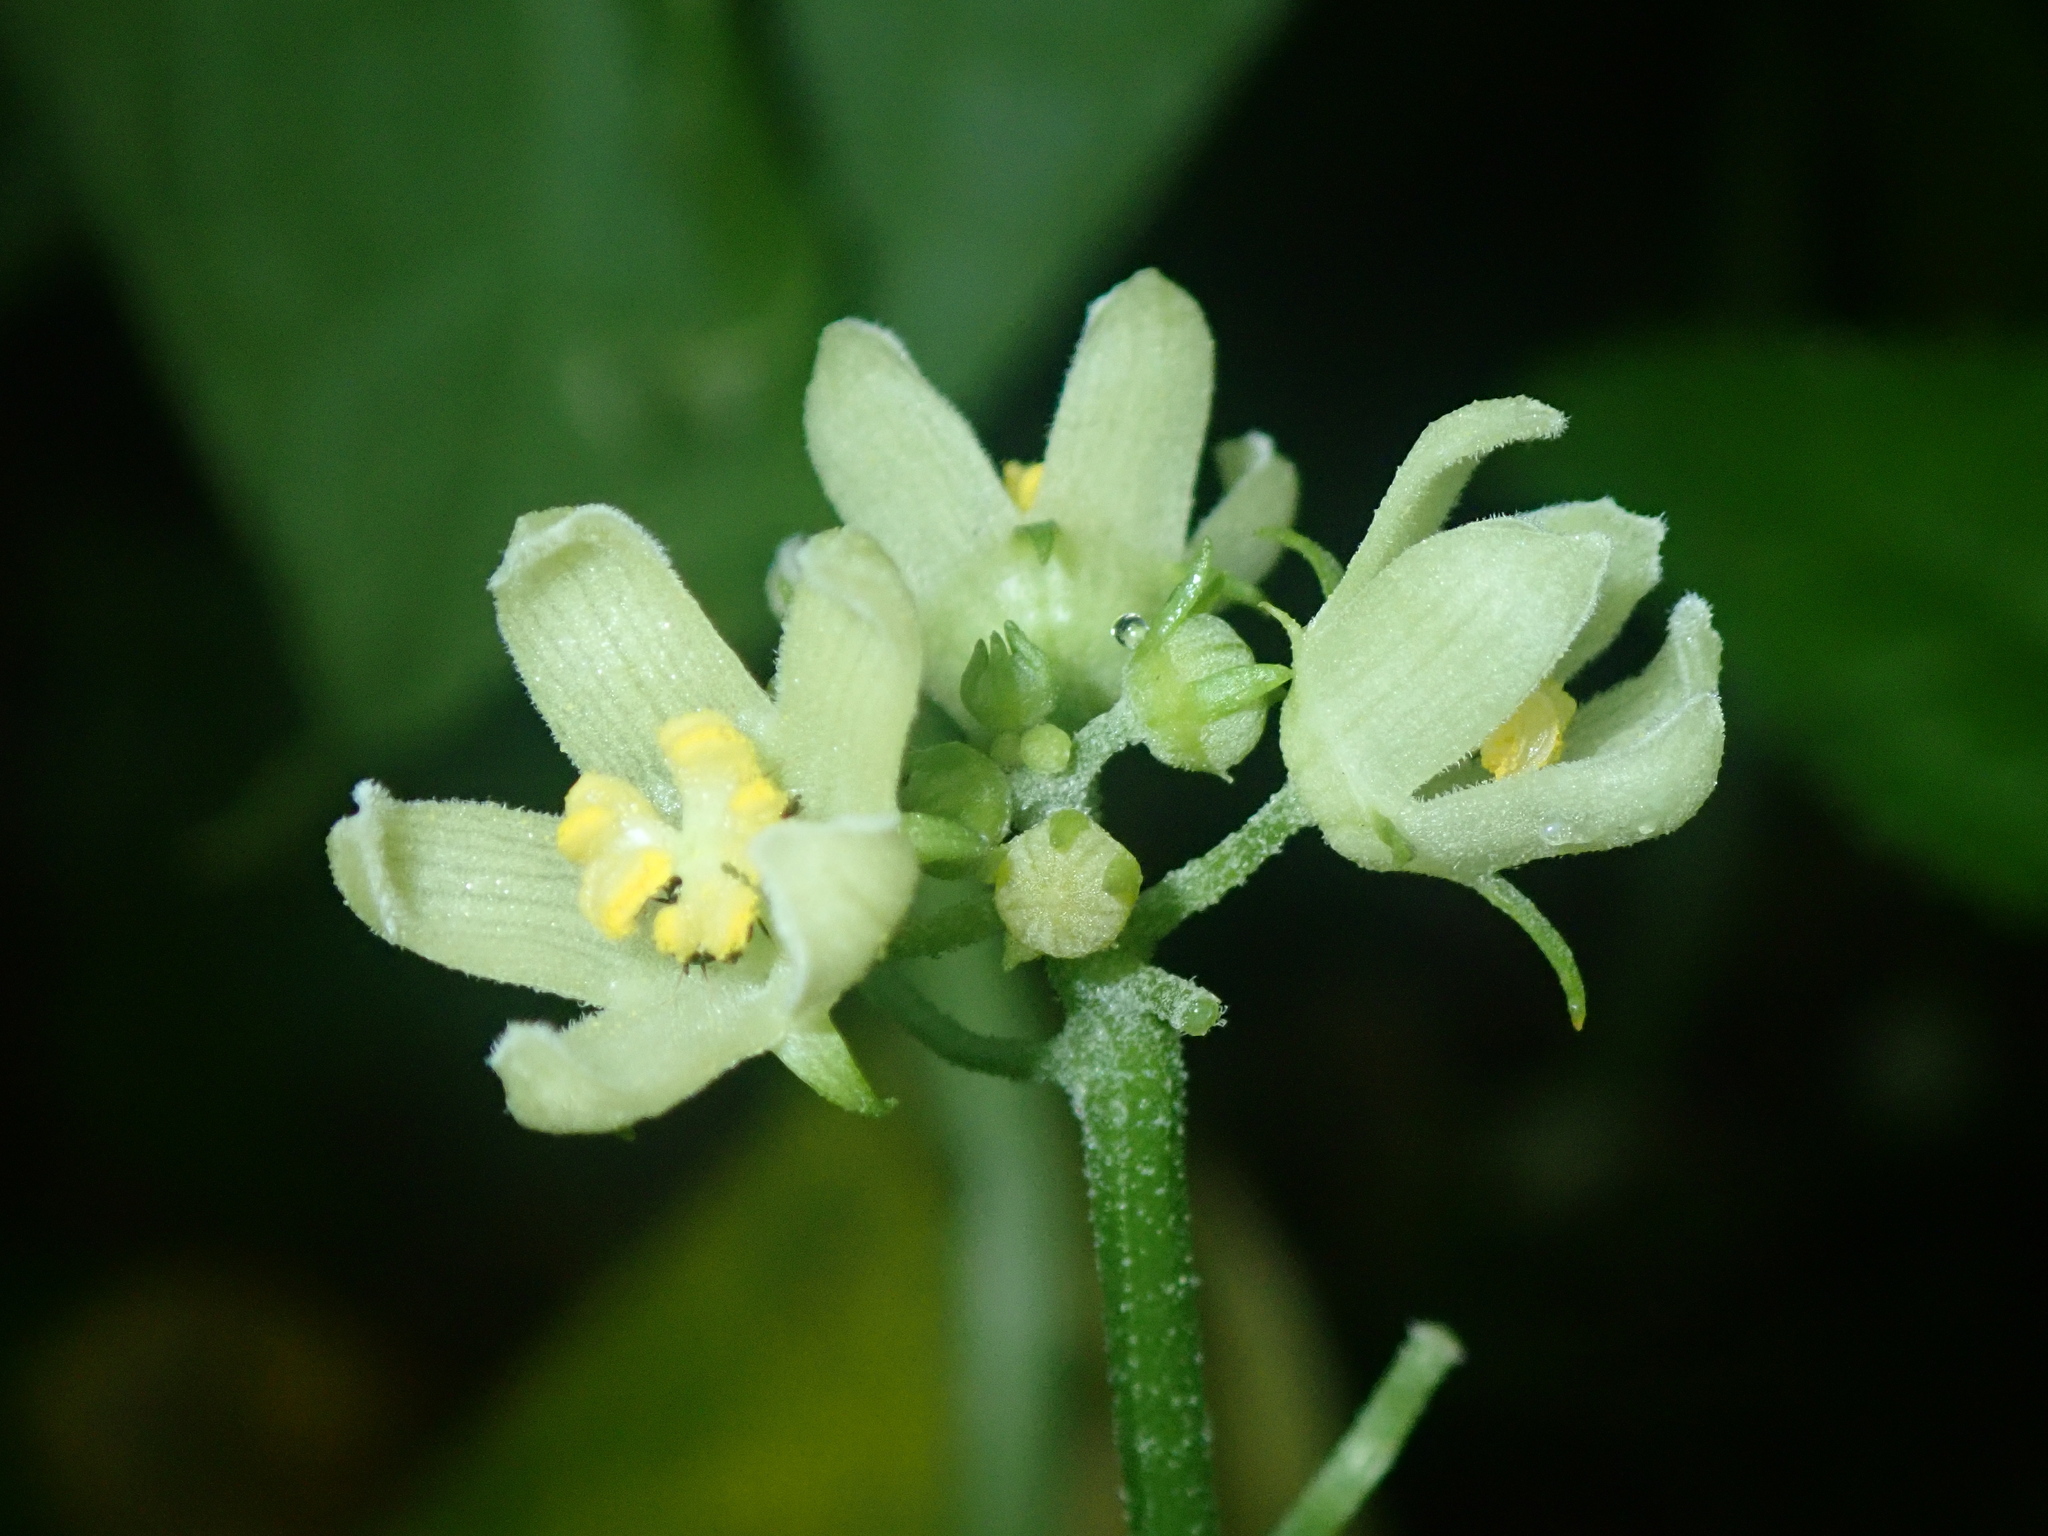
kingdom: Plantae
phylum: Tracheophyta
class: Magnoliopsida
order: Cucurbitales
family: Cucurbitaceae
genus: Sechium
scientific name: Sechium edule
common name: Chayote
